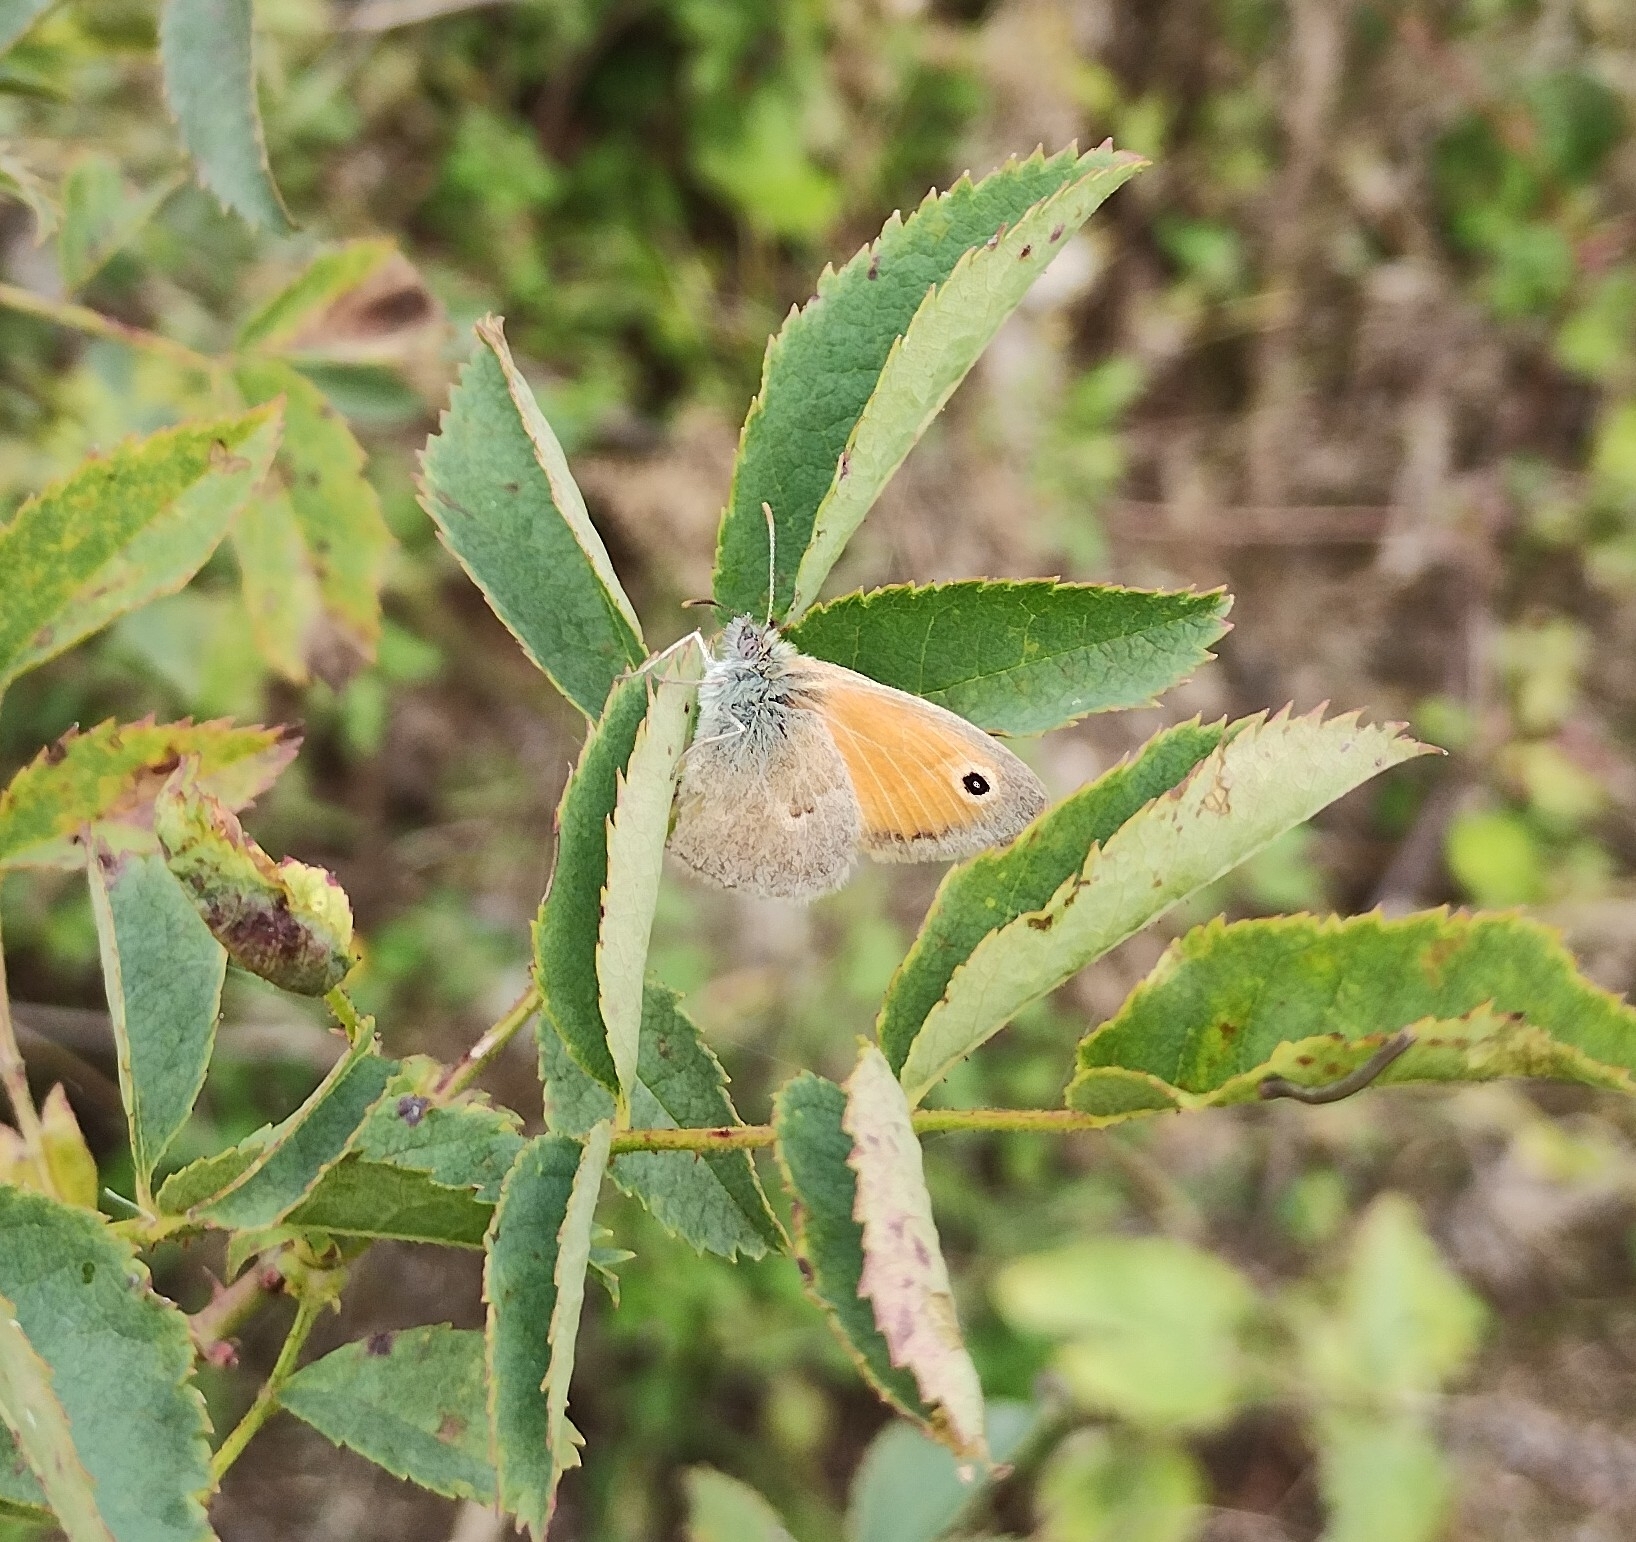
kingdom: Animalia
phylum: Arthropoda
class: Insecta
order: Lepidoptera
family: Nymphalidae
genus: Coenonympha
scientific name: Coenonympha pamphilus
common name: Small heath
